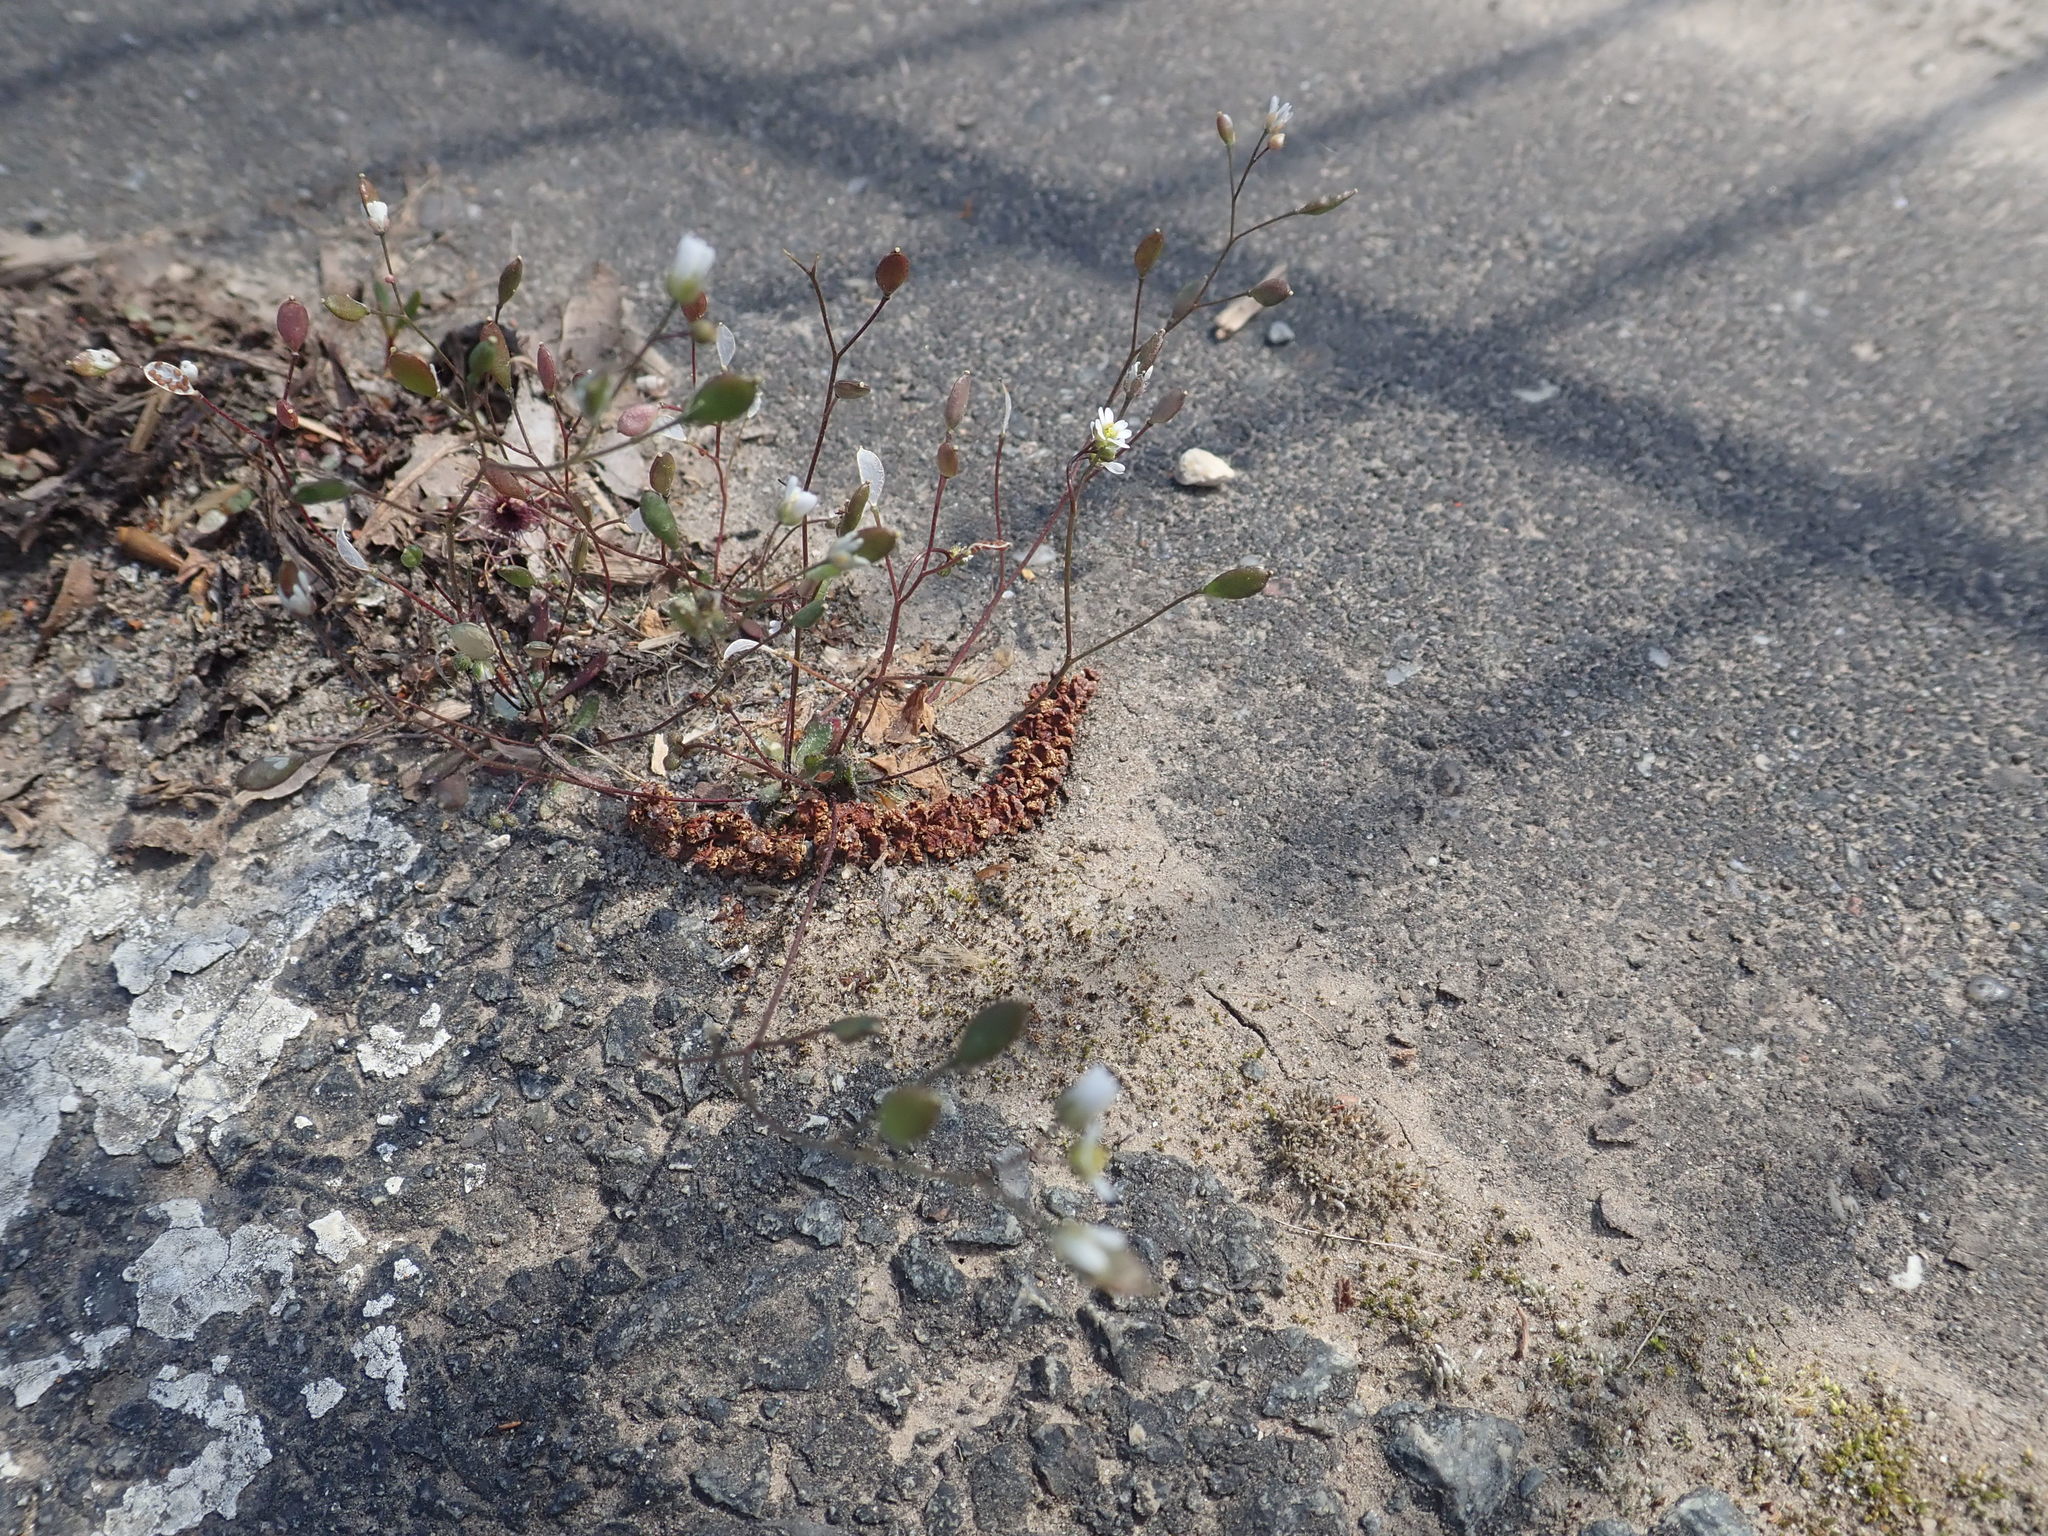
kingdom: Plantae
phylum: Tracheophyta
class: Magnoliopsida
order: Brassicales
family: Brassicaceae
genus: Draba
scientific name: Draba verna
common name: Spring draba
